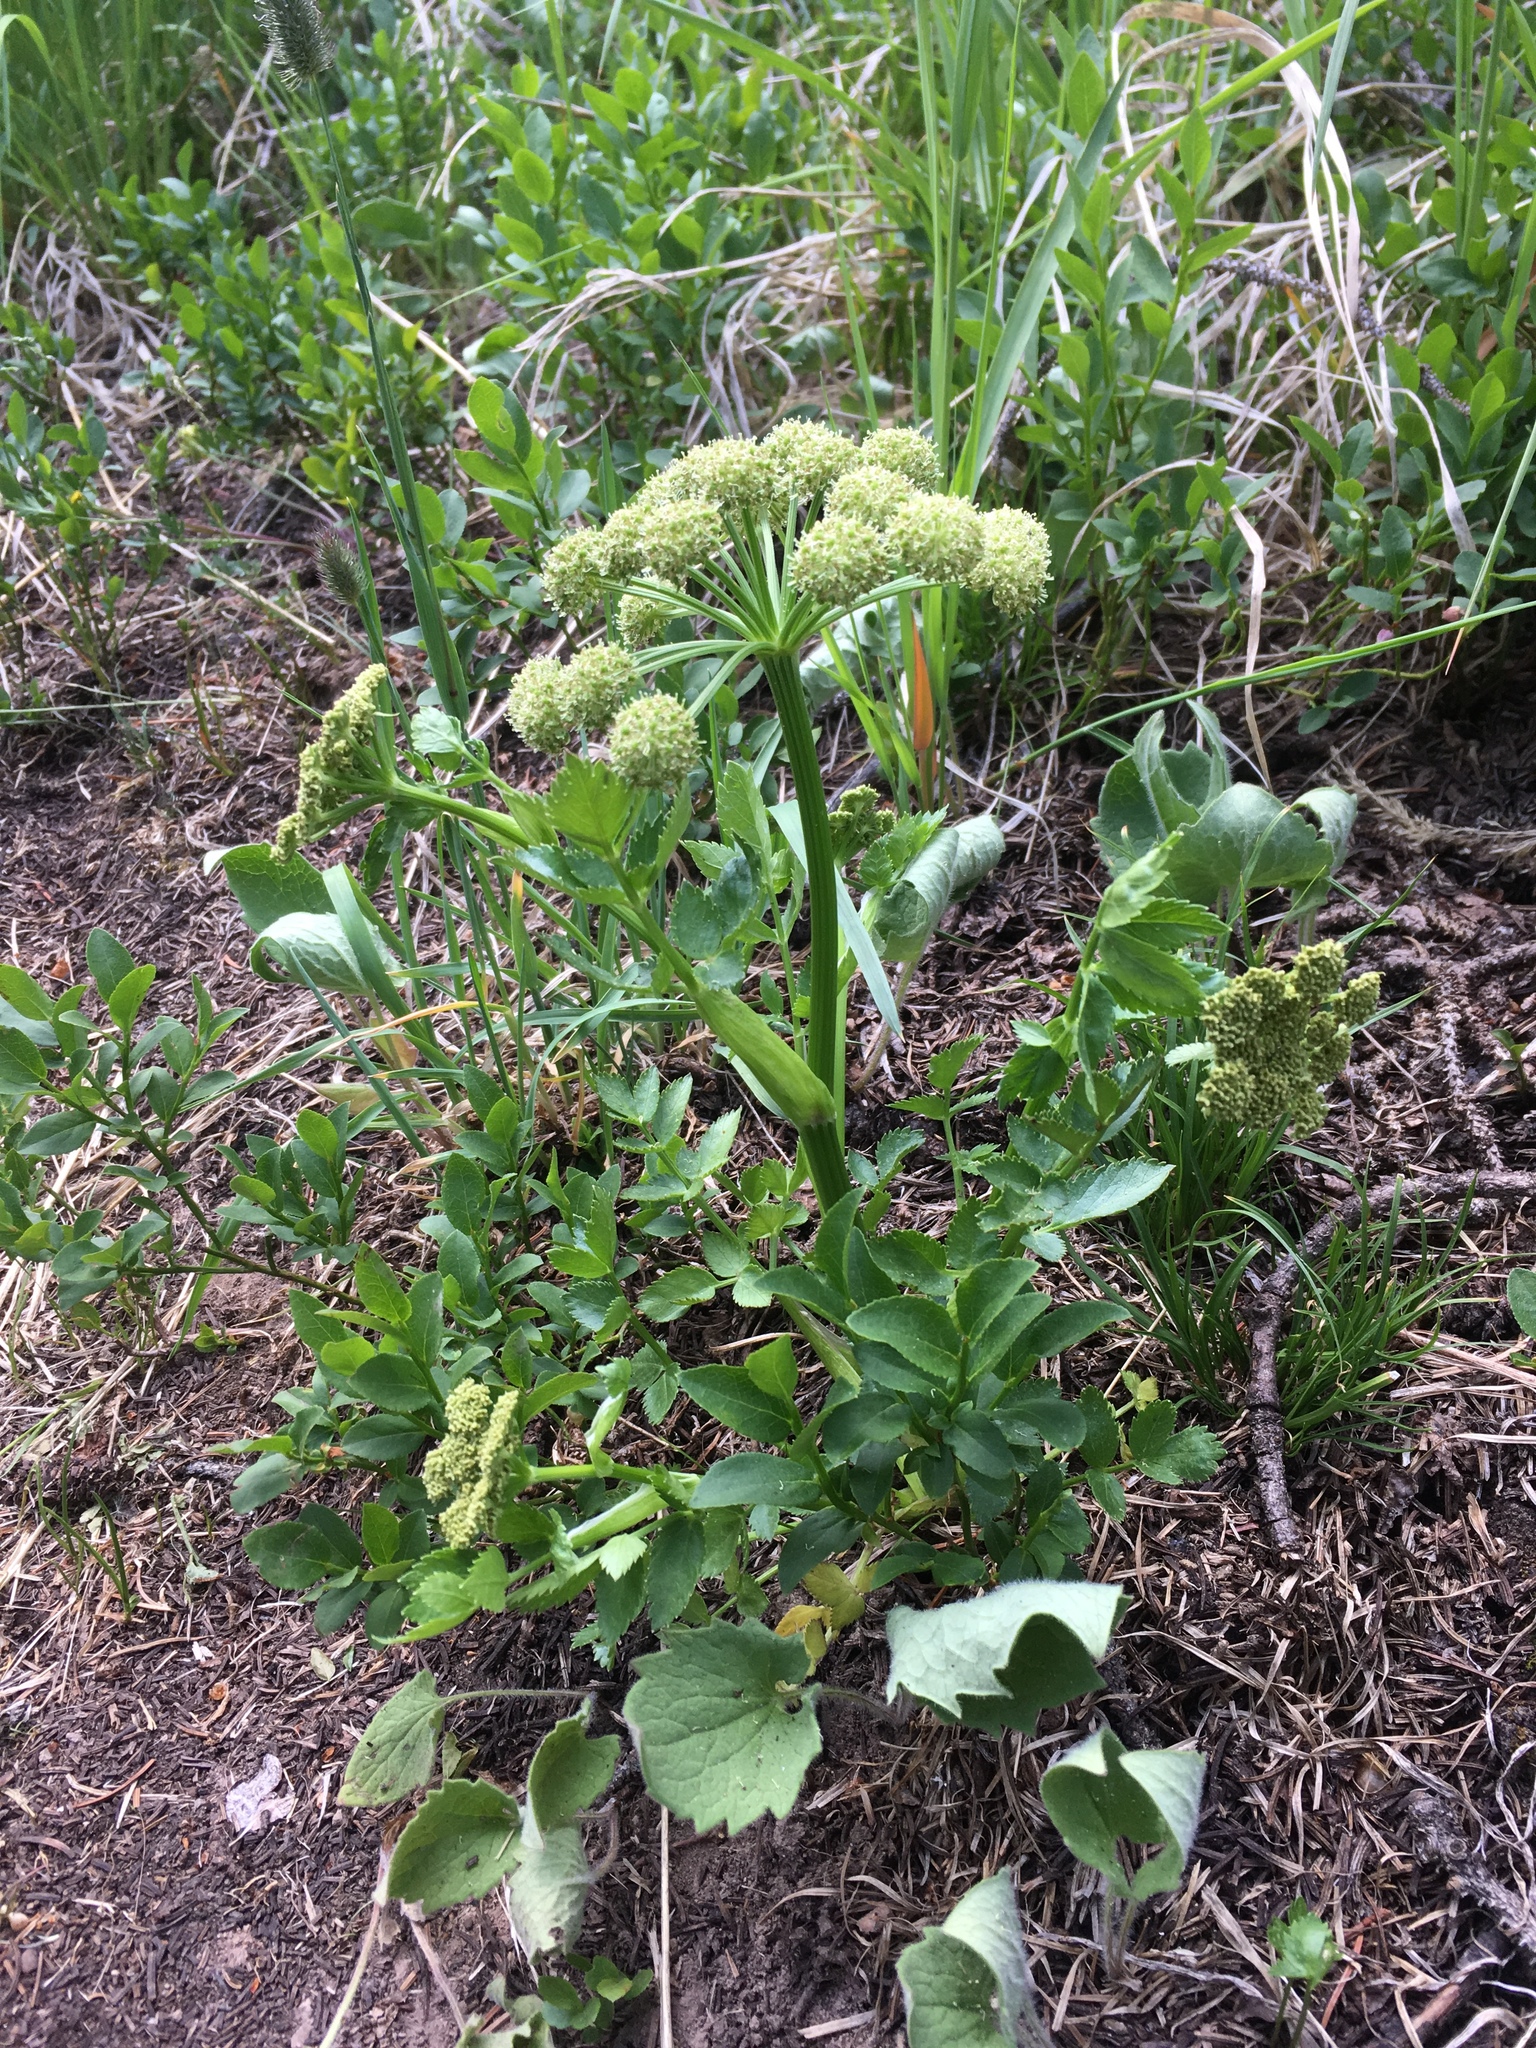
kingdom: Plantae
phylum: Tracheophyta
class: Magnoliopsida
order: Apiales
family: Apiaceae
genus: Angelica
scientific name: Angelica grayi
